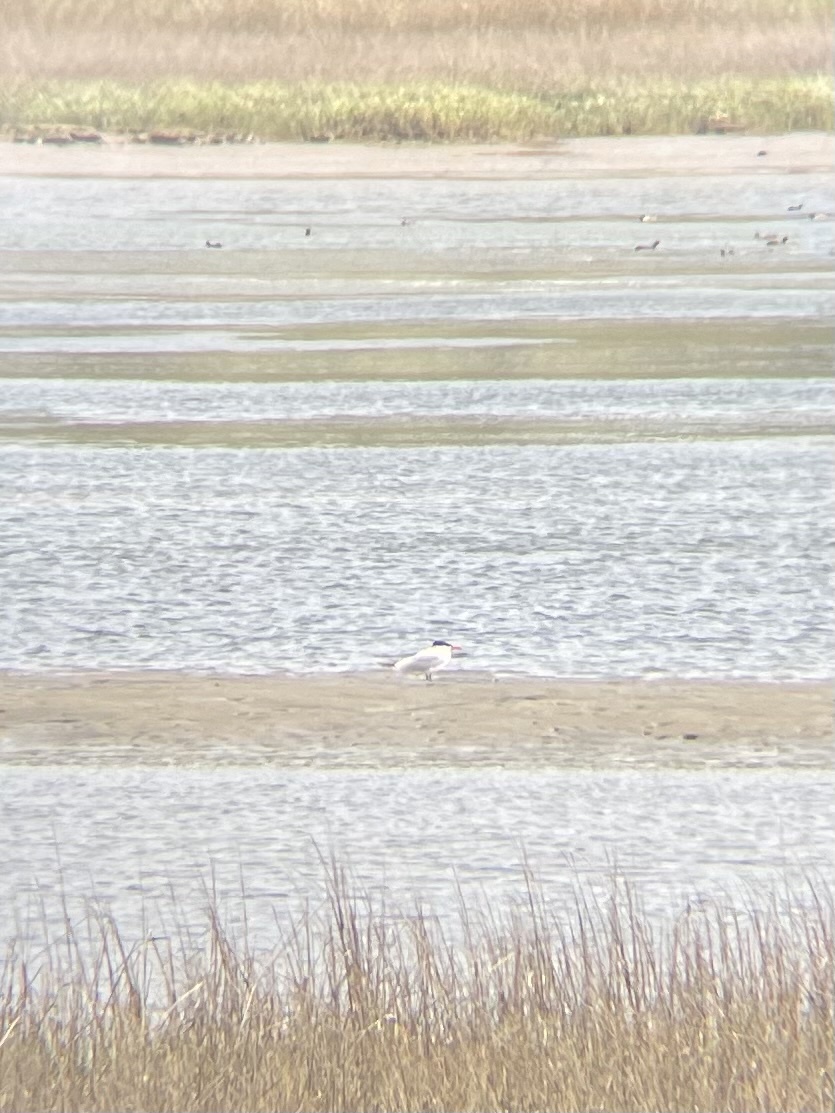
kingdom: Animalia
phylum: Chordata
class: Aves
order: Charadriiformes
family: Laridae
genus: Hydroprogne
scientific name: Hydroprogne caspia
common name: Caspian tern
